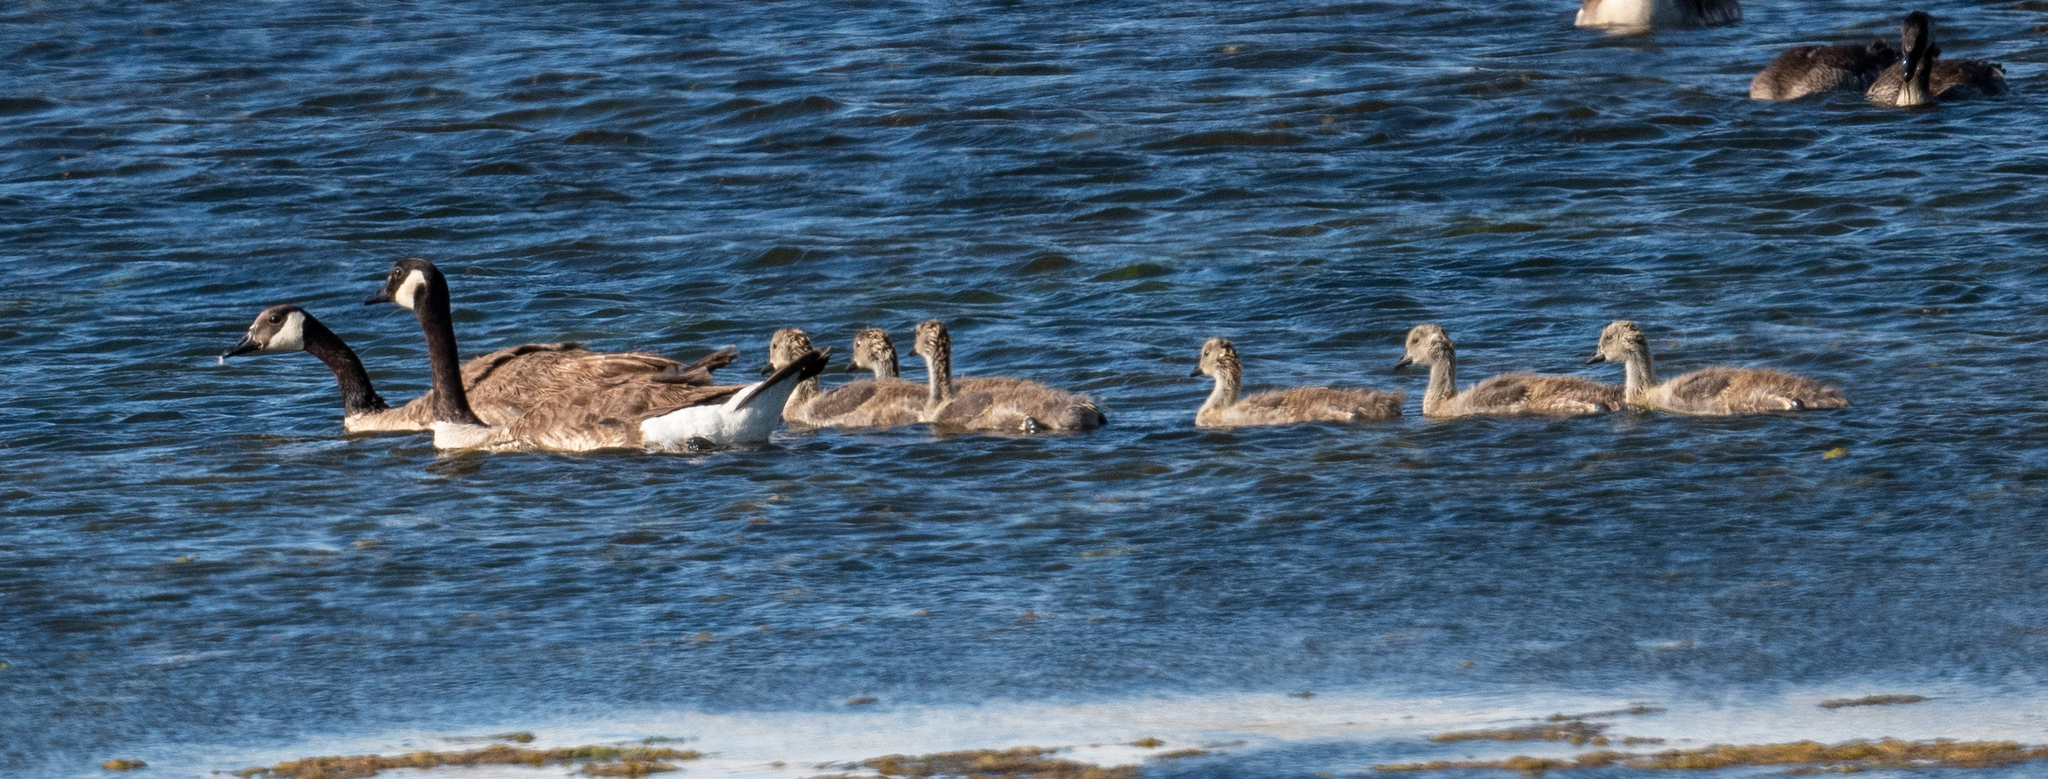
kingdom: Animalia
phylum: Chordata
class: Aves
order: Anseriformes
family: Anatidae
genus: Branta
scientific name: Branta canadensis
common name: Canada goose
